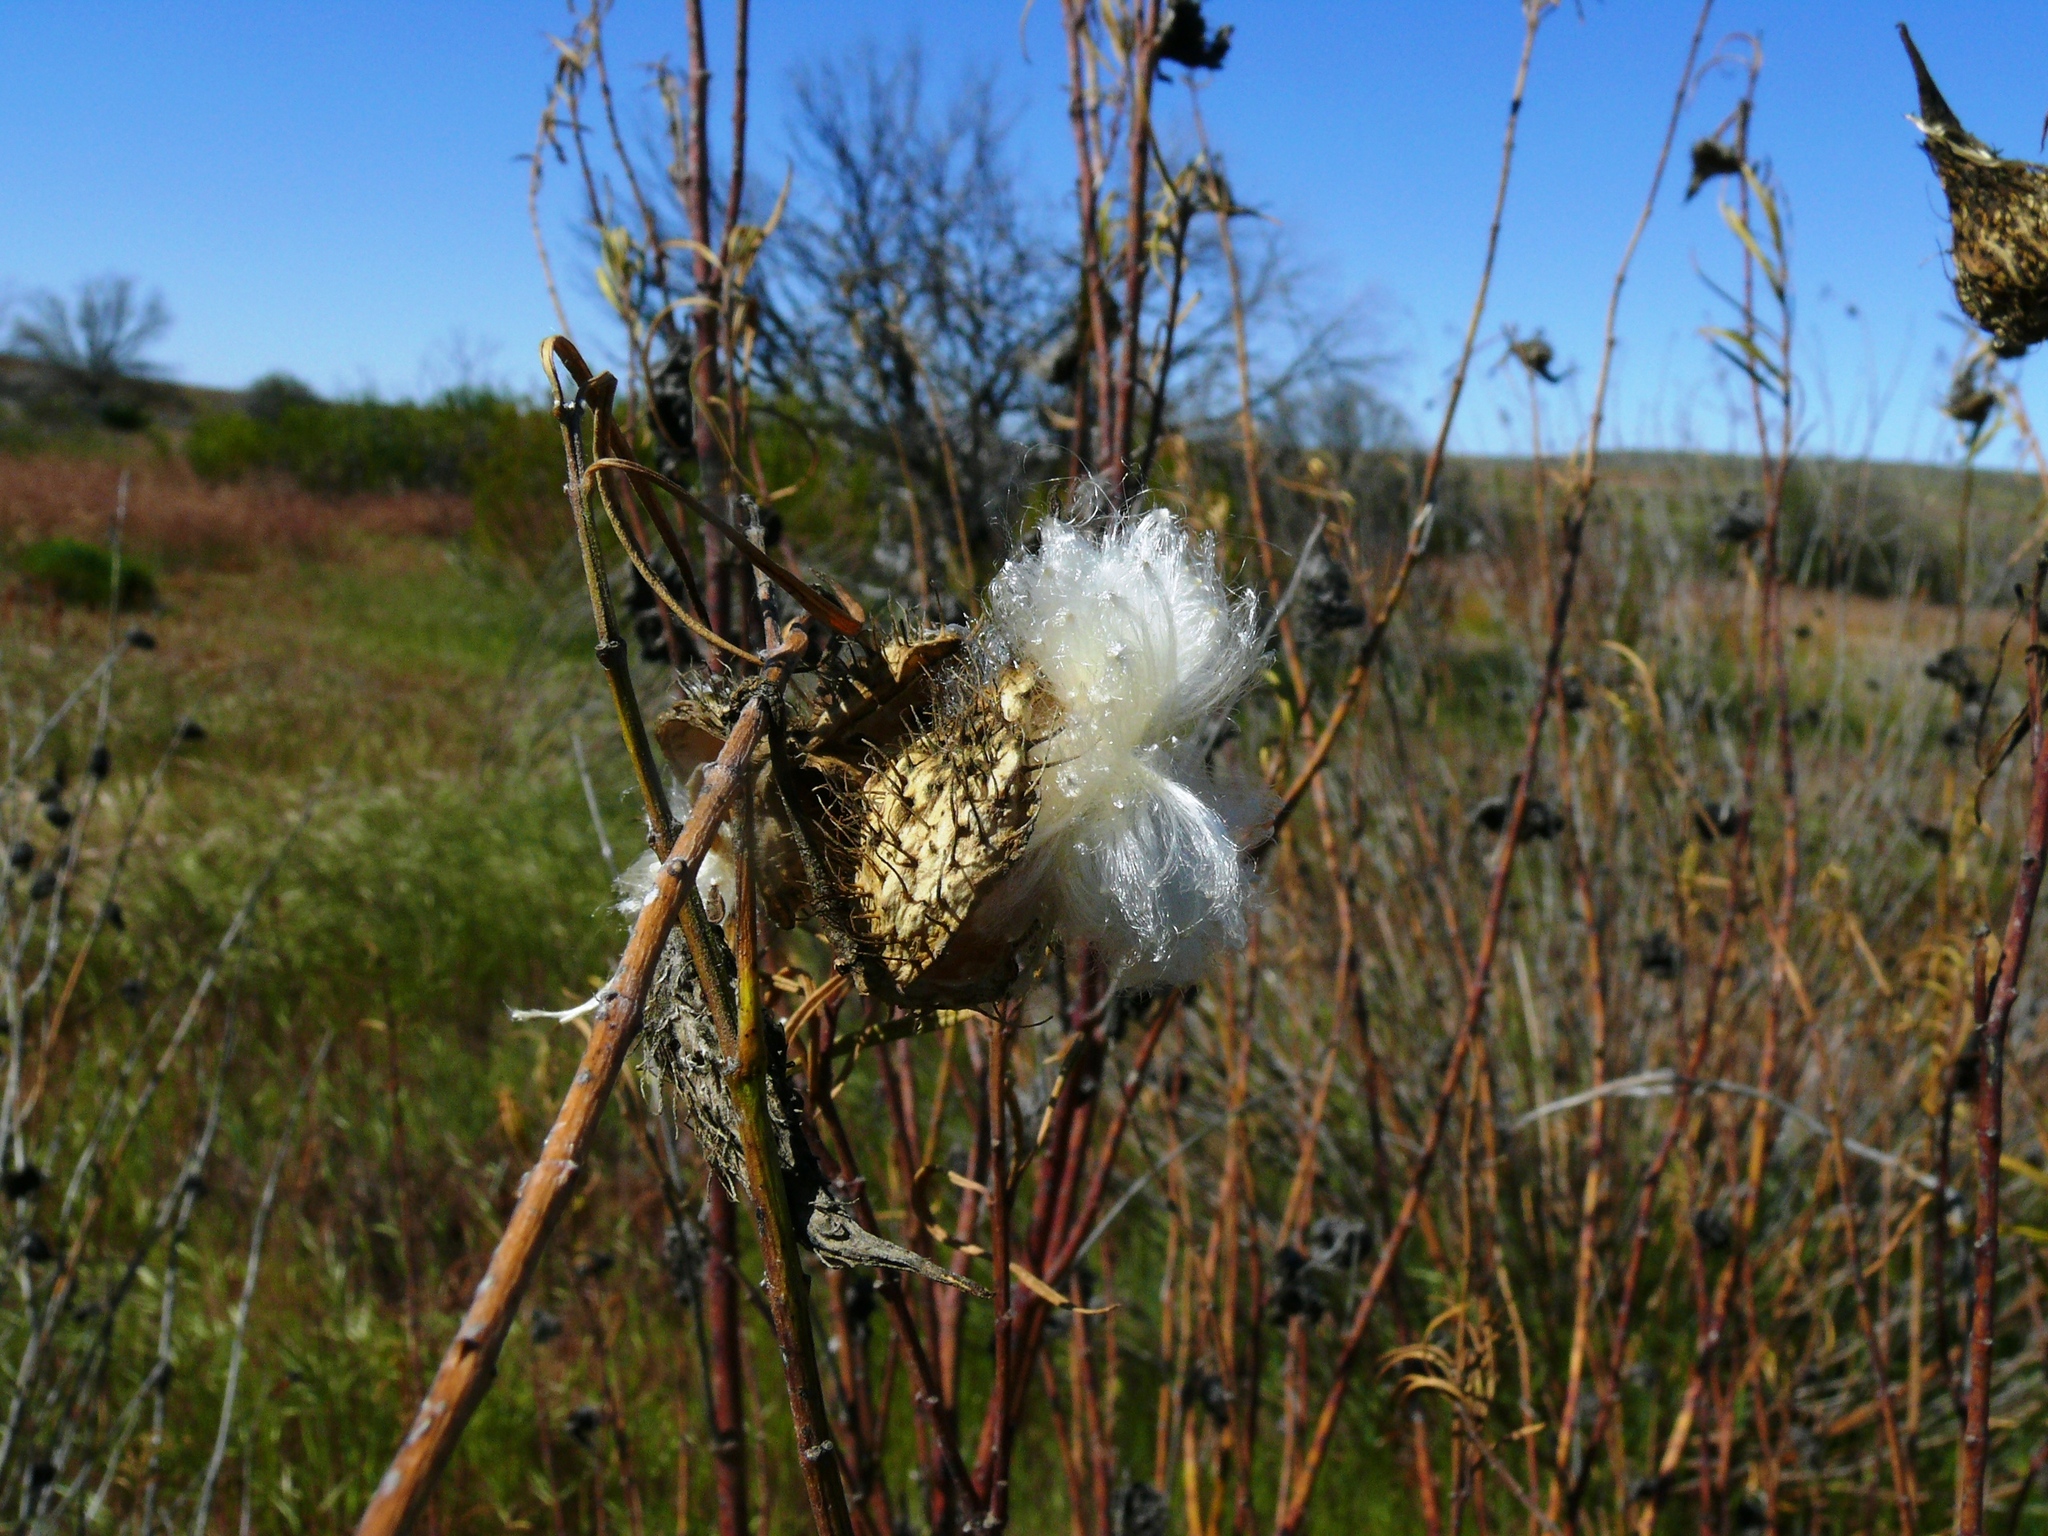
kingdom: Plantae
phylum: Tracheophyta
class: Magnoliopsida
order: Gentianales
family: Apocynaceae
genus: Gomphocarpus
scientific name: Gomphocarpus fruticosus
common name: Milkweed
